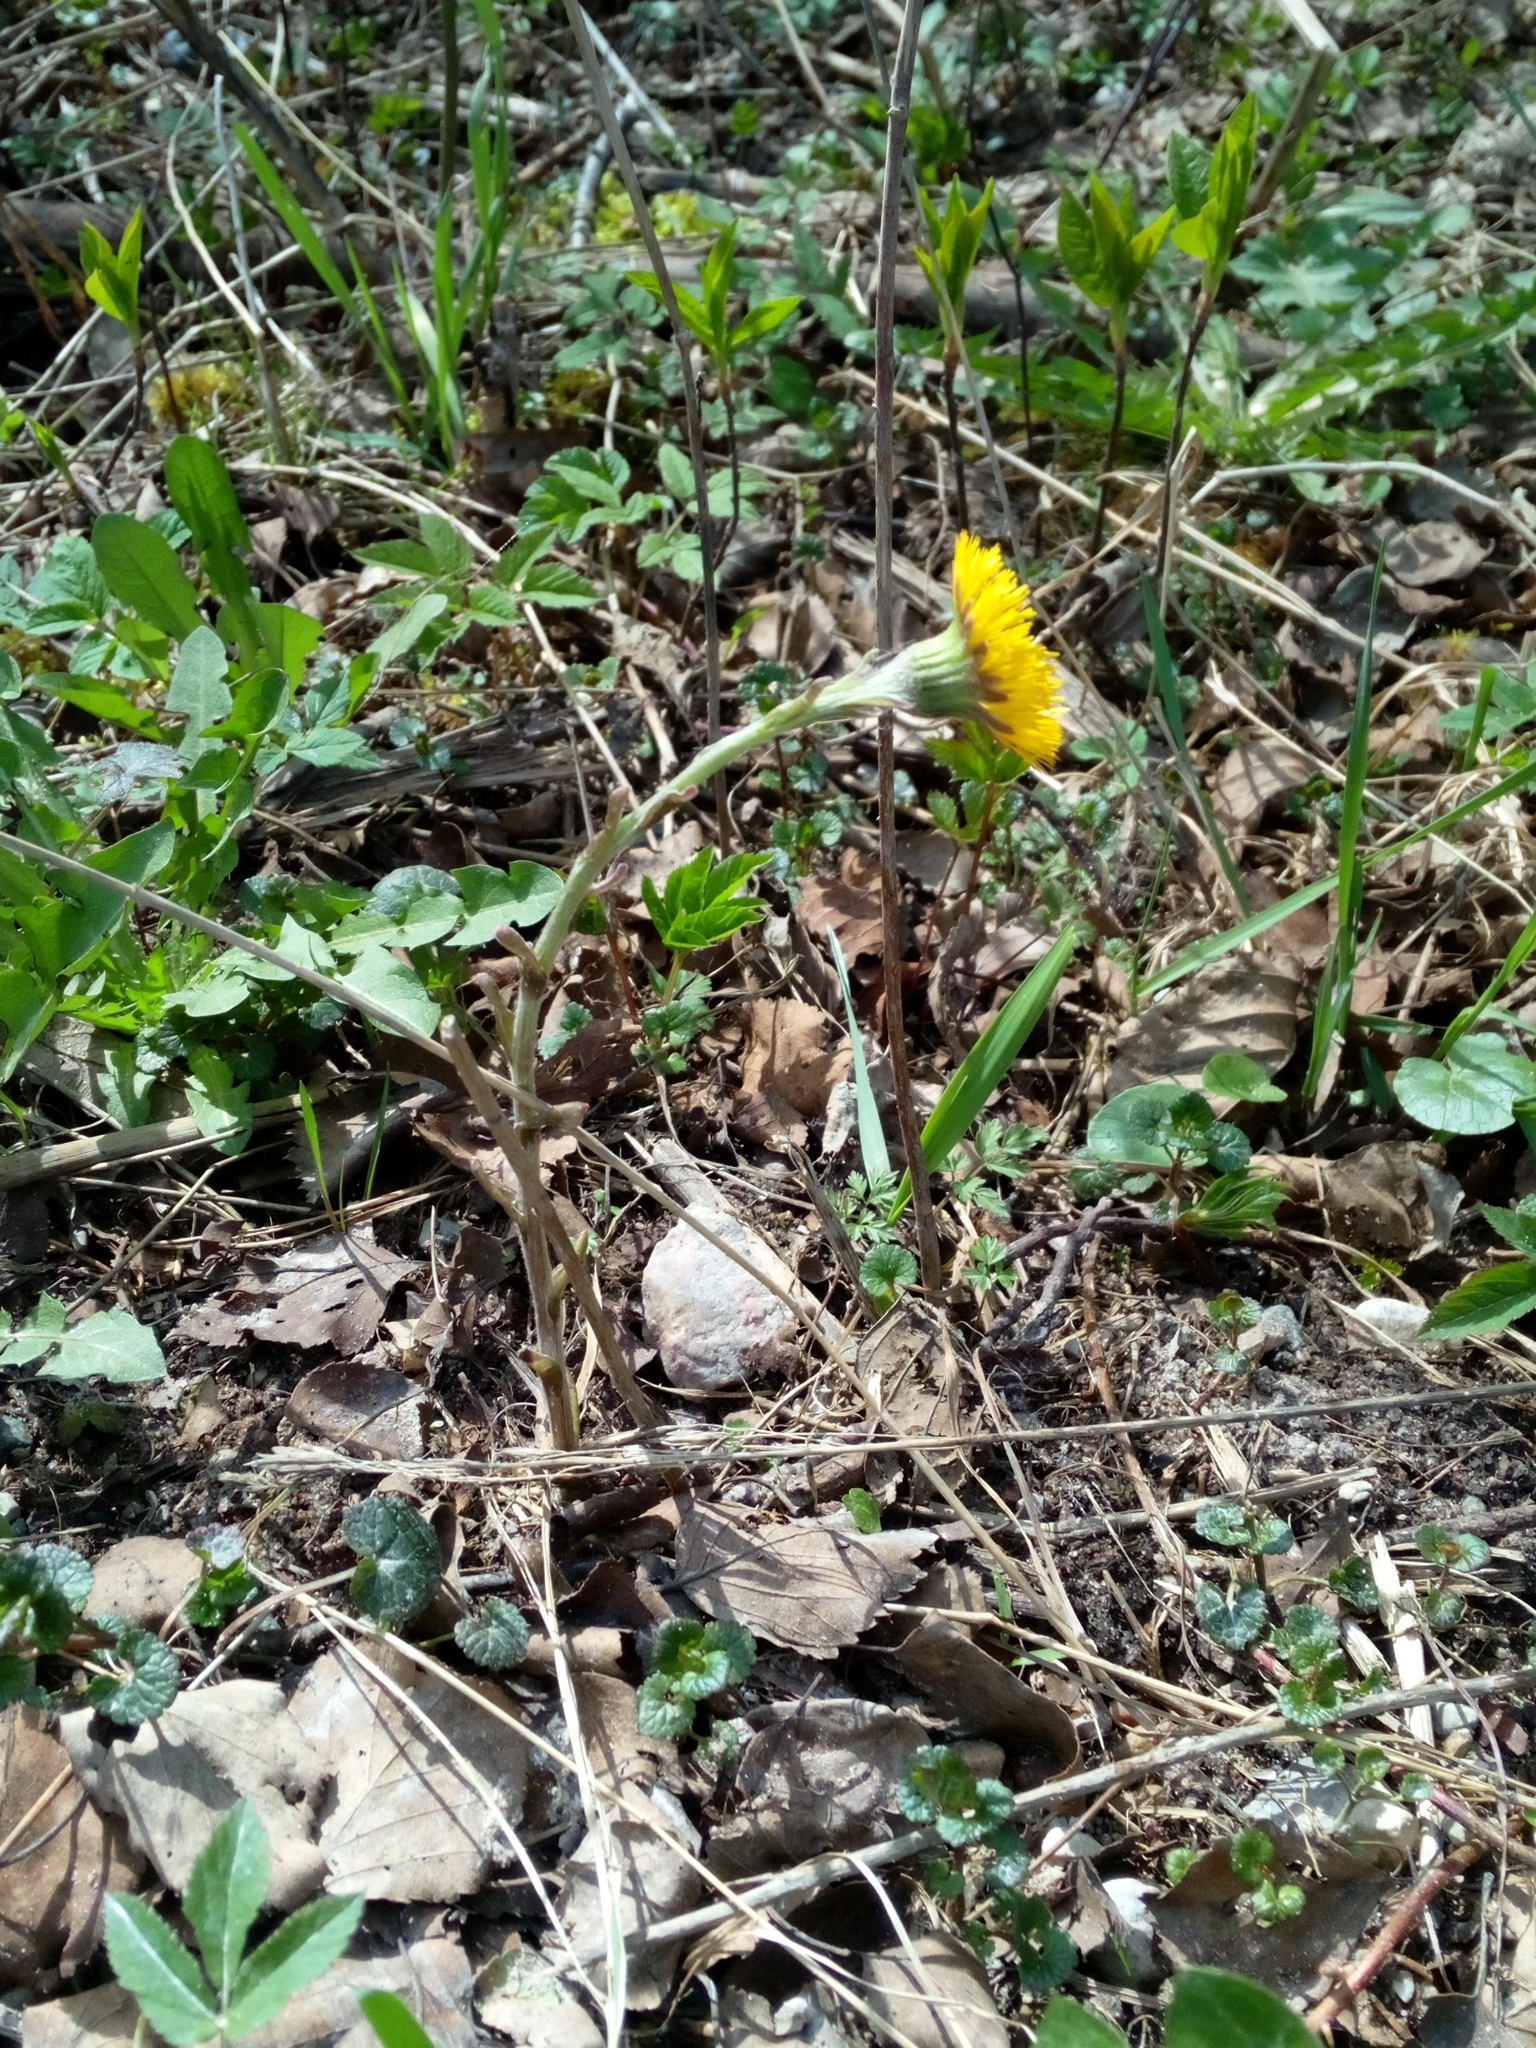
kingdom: Plantae
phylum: Tracheophyta
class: Magnoliopsida
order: Asterales
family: Asteraceae
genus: Tussilago
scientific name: Tussilago farfara
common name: Coltsfoot
